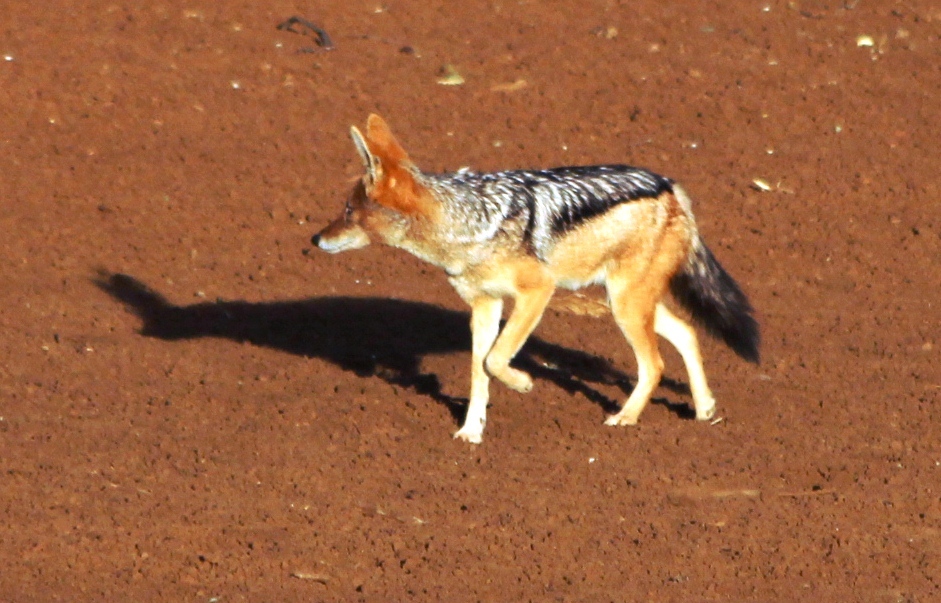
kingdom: Animalia
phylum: Chordata
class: Mammalia
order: Carnivora
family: Canidae
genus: Lupulella
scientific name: Lupulella
